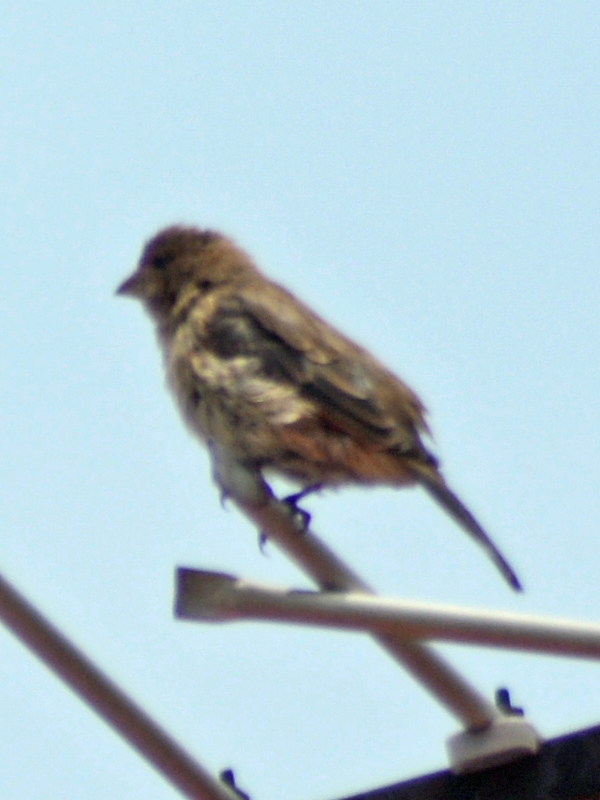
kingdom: Animalia
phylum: Chordata
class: Aves
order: Passeriformes
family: Fringillidae
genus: Haemorhous
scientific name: Haemorhous mexicanus
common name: House finch
